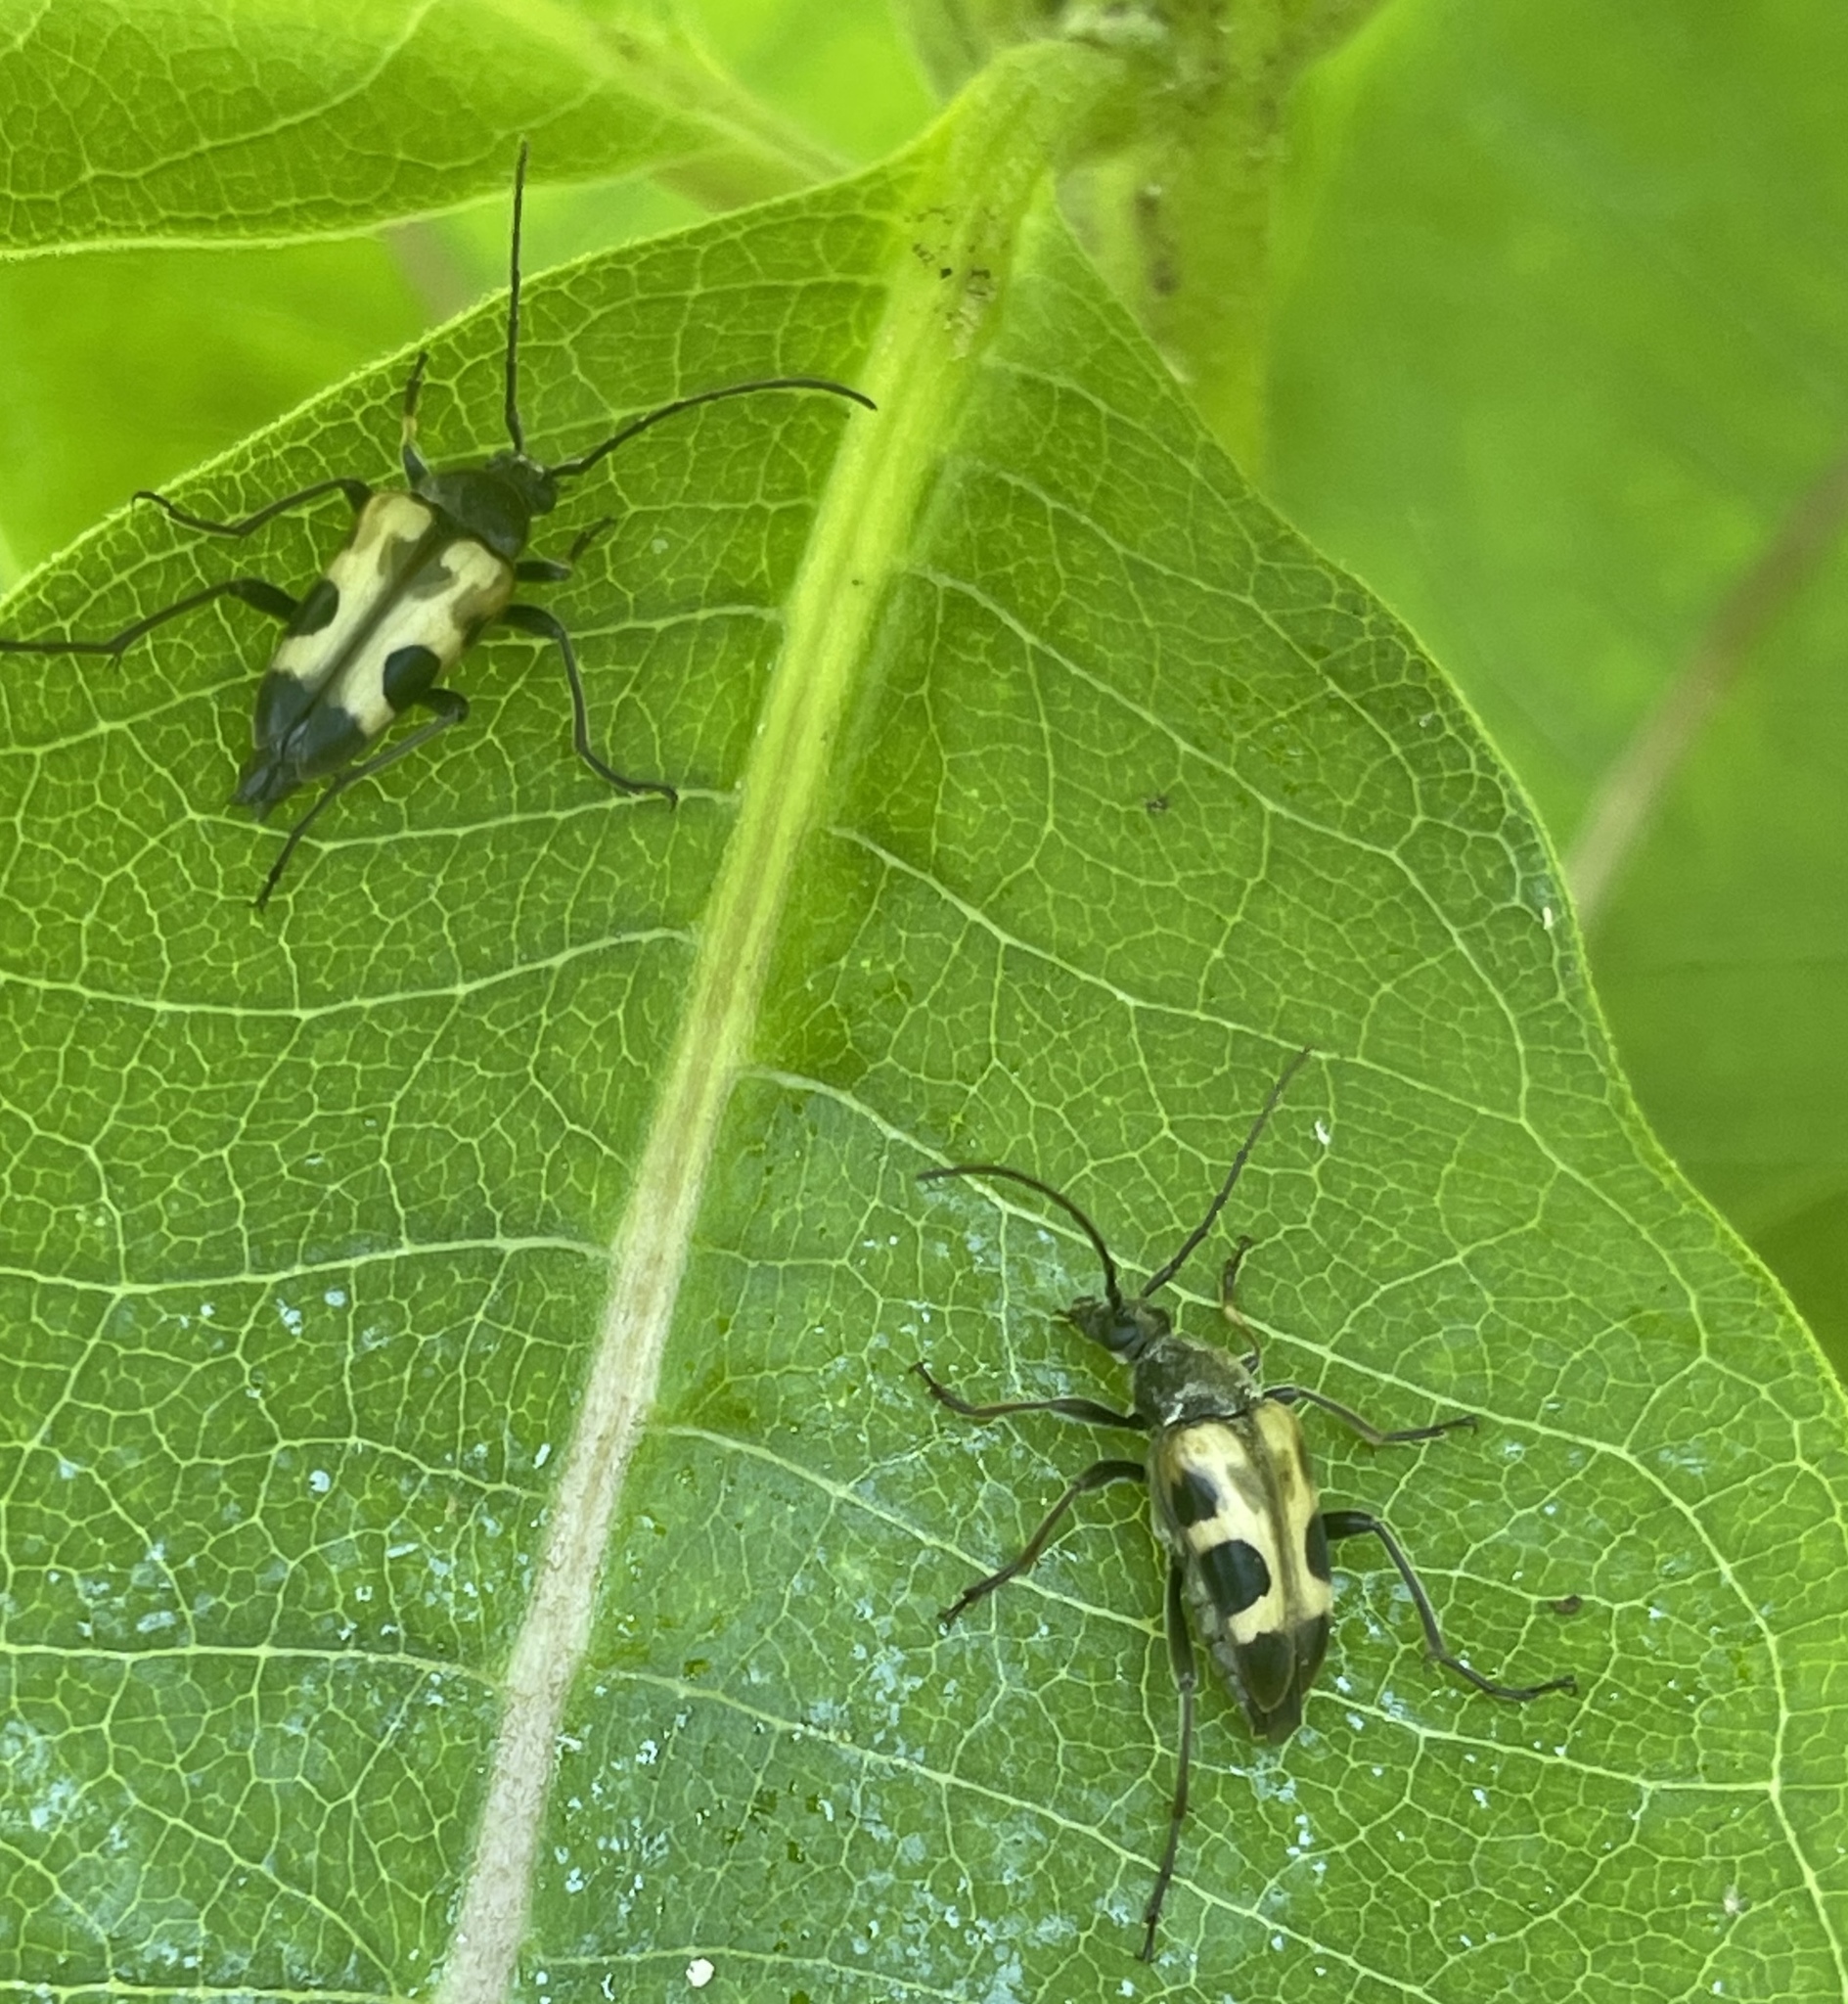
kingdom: Animalia
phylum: Arthropoda
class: Insecta
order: Coleoptera
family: Cerambycidae
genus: Judolia
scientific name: Judolia cordifera
